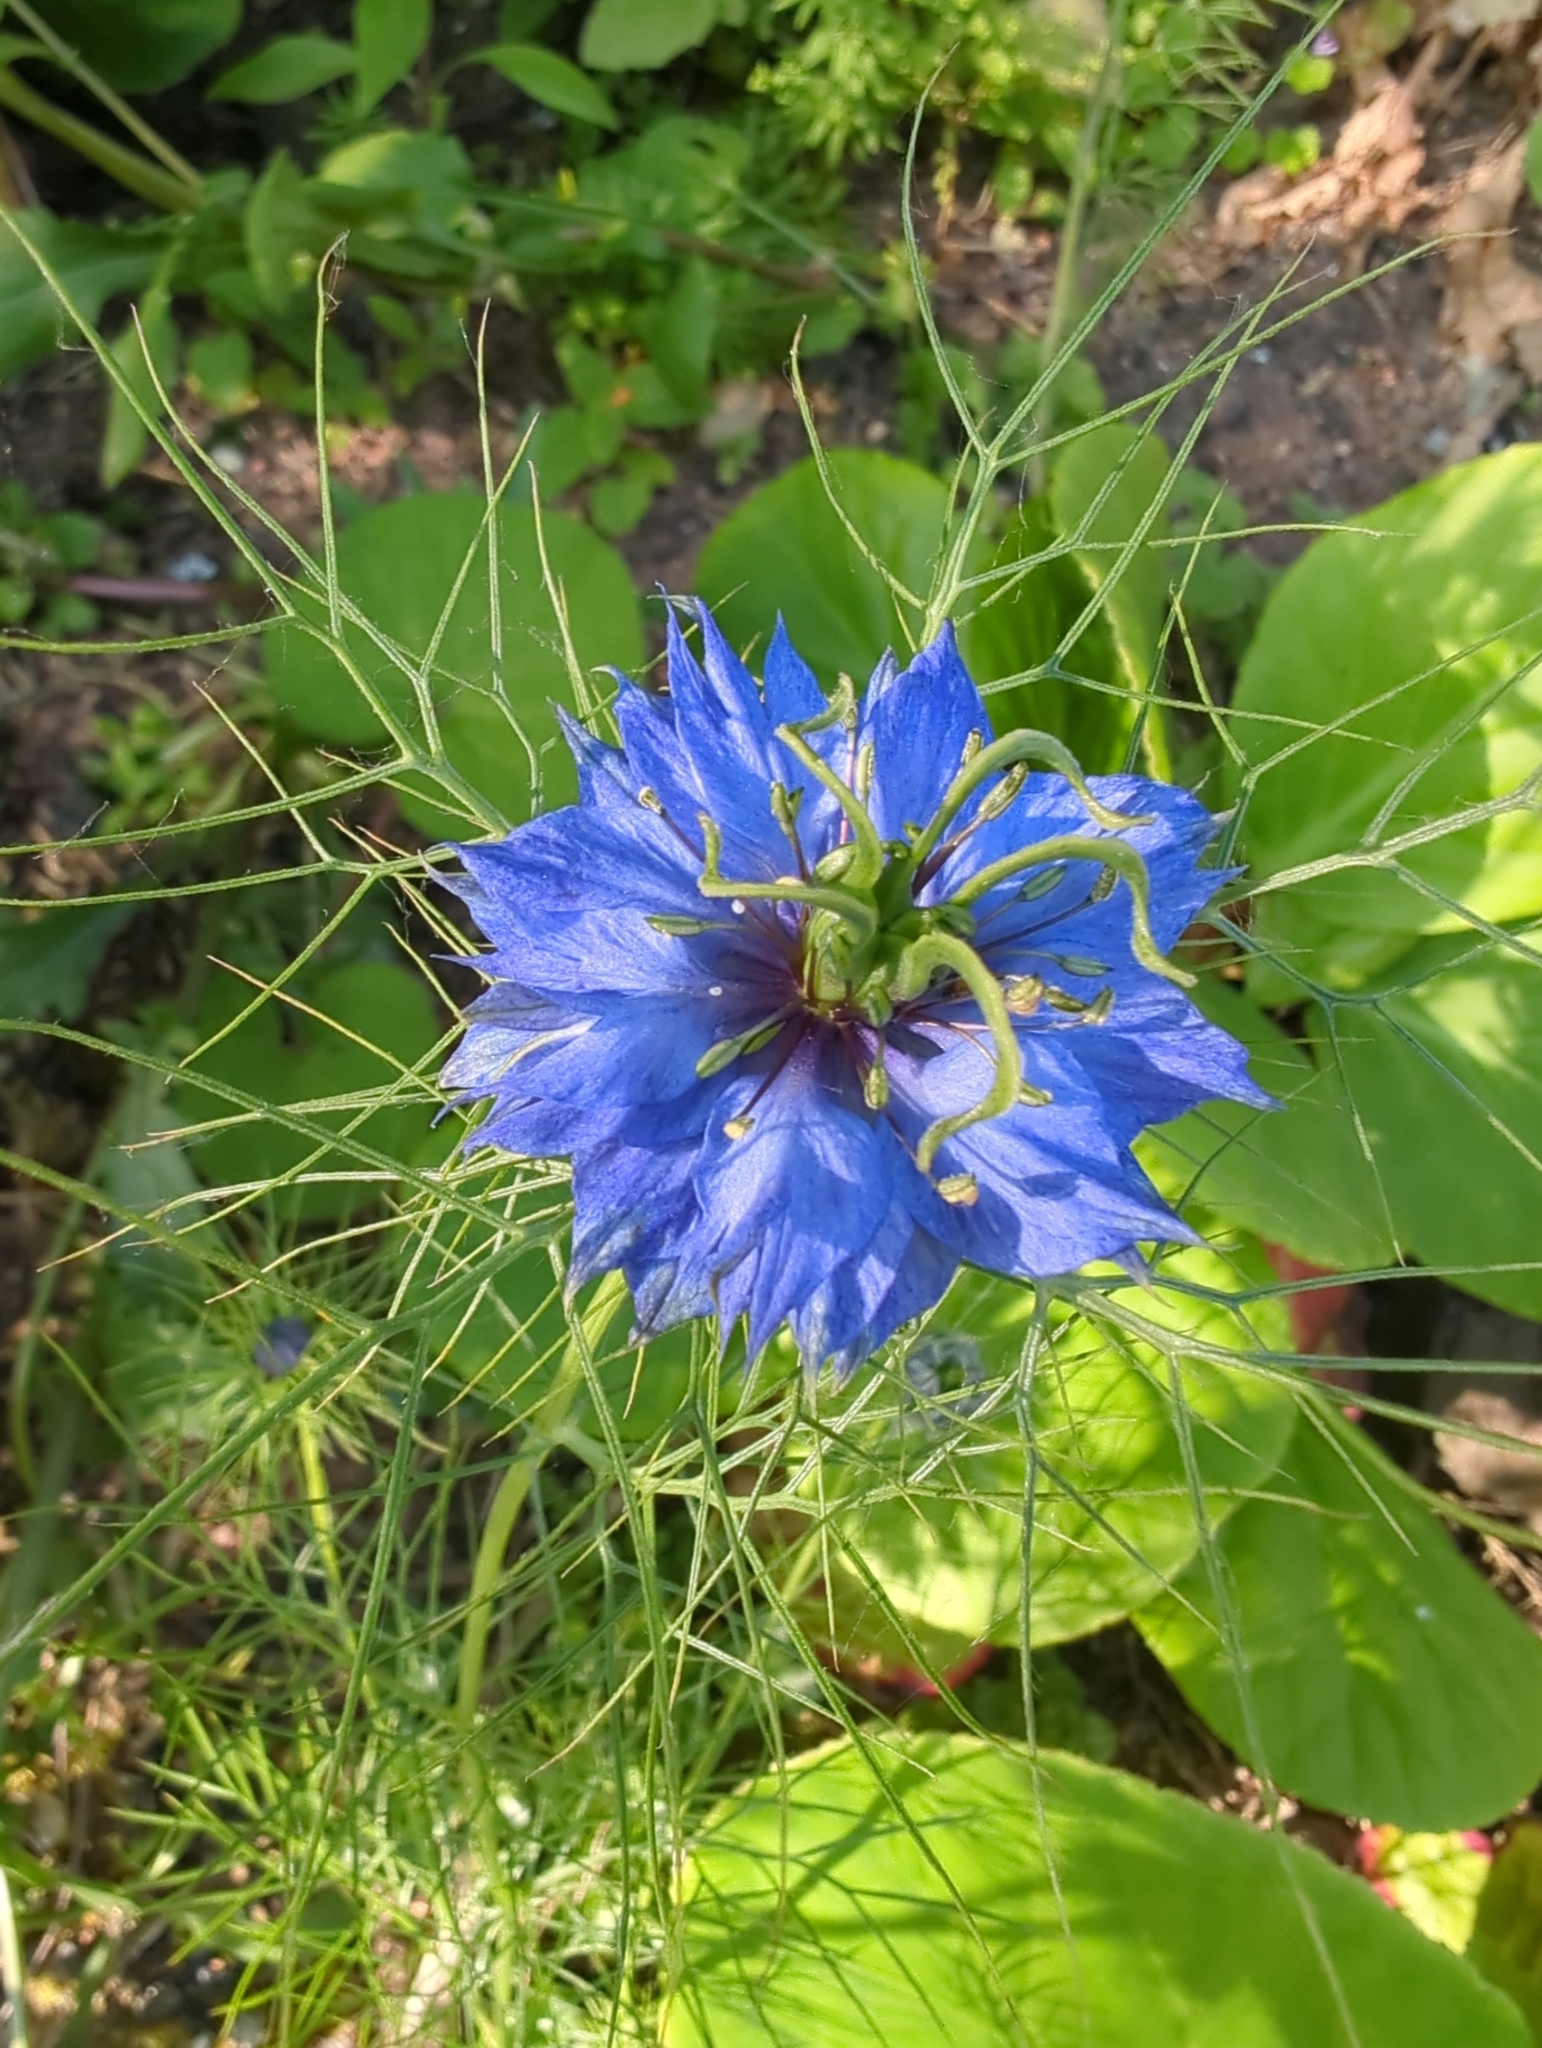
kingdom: Plantae
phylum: Tracheophyta
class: Magnoliopsida
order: Ranunculales
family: Ranunculaceae
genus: Nigella
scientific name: Nigella damascena
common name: Love-in-a-mist
